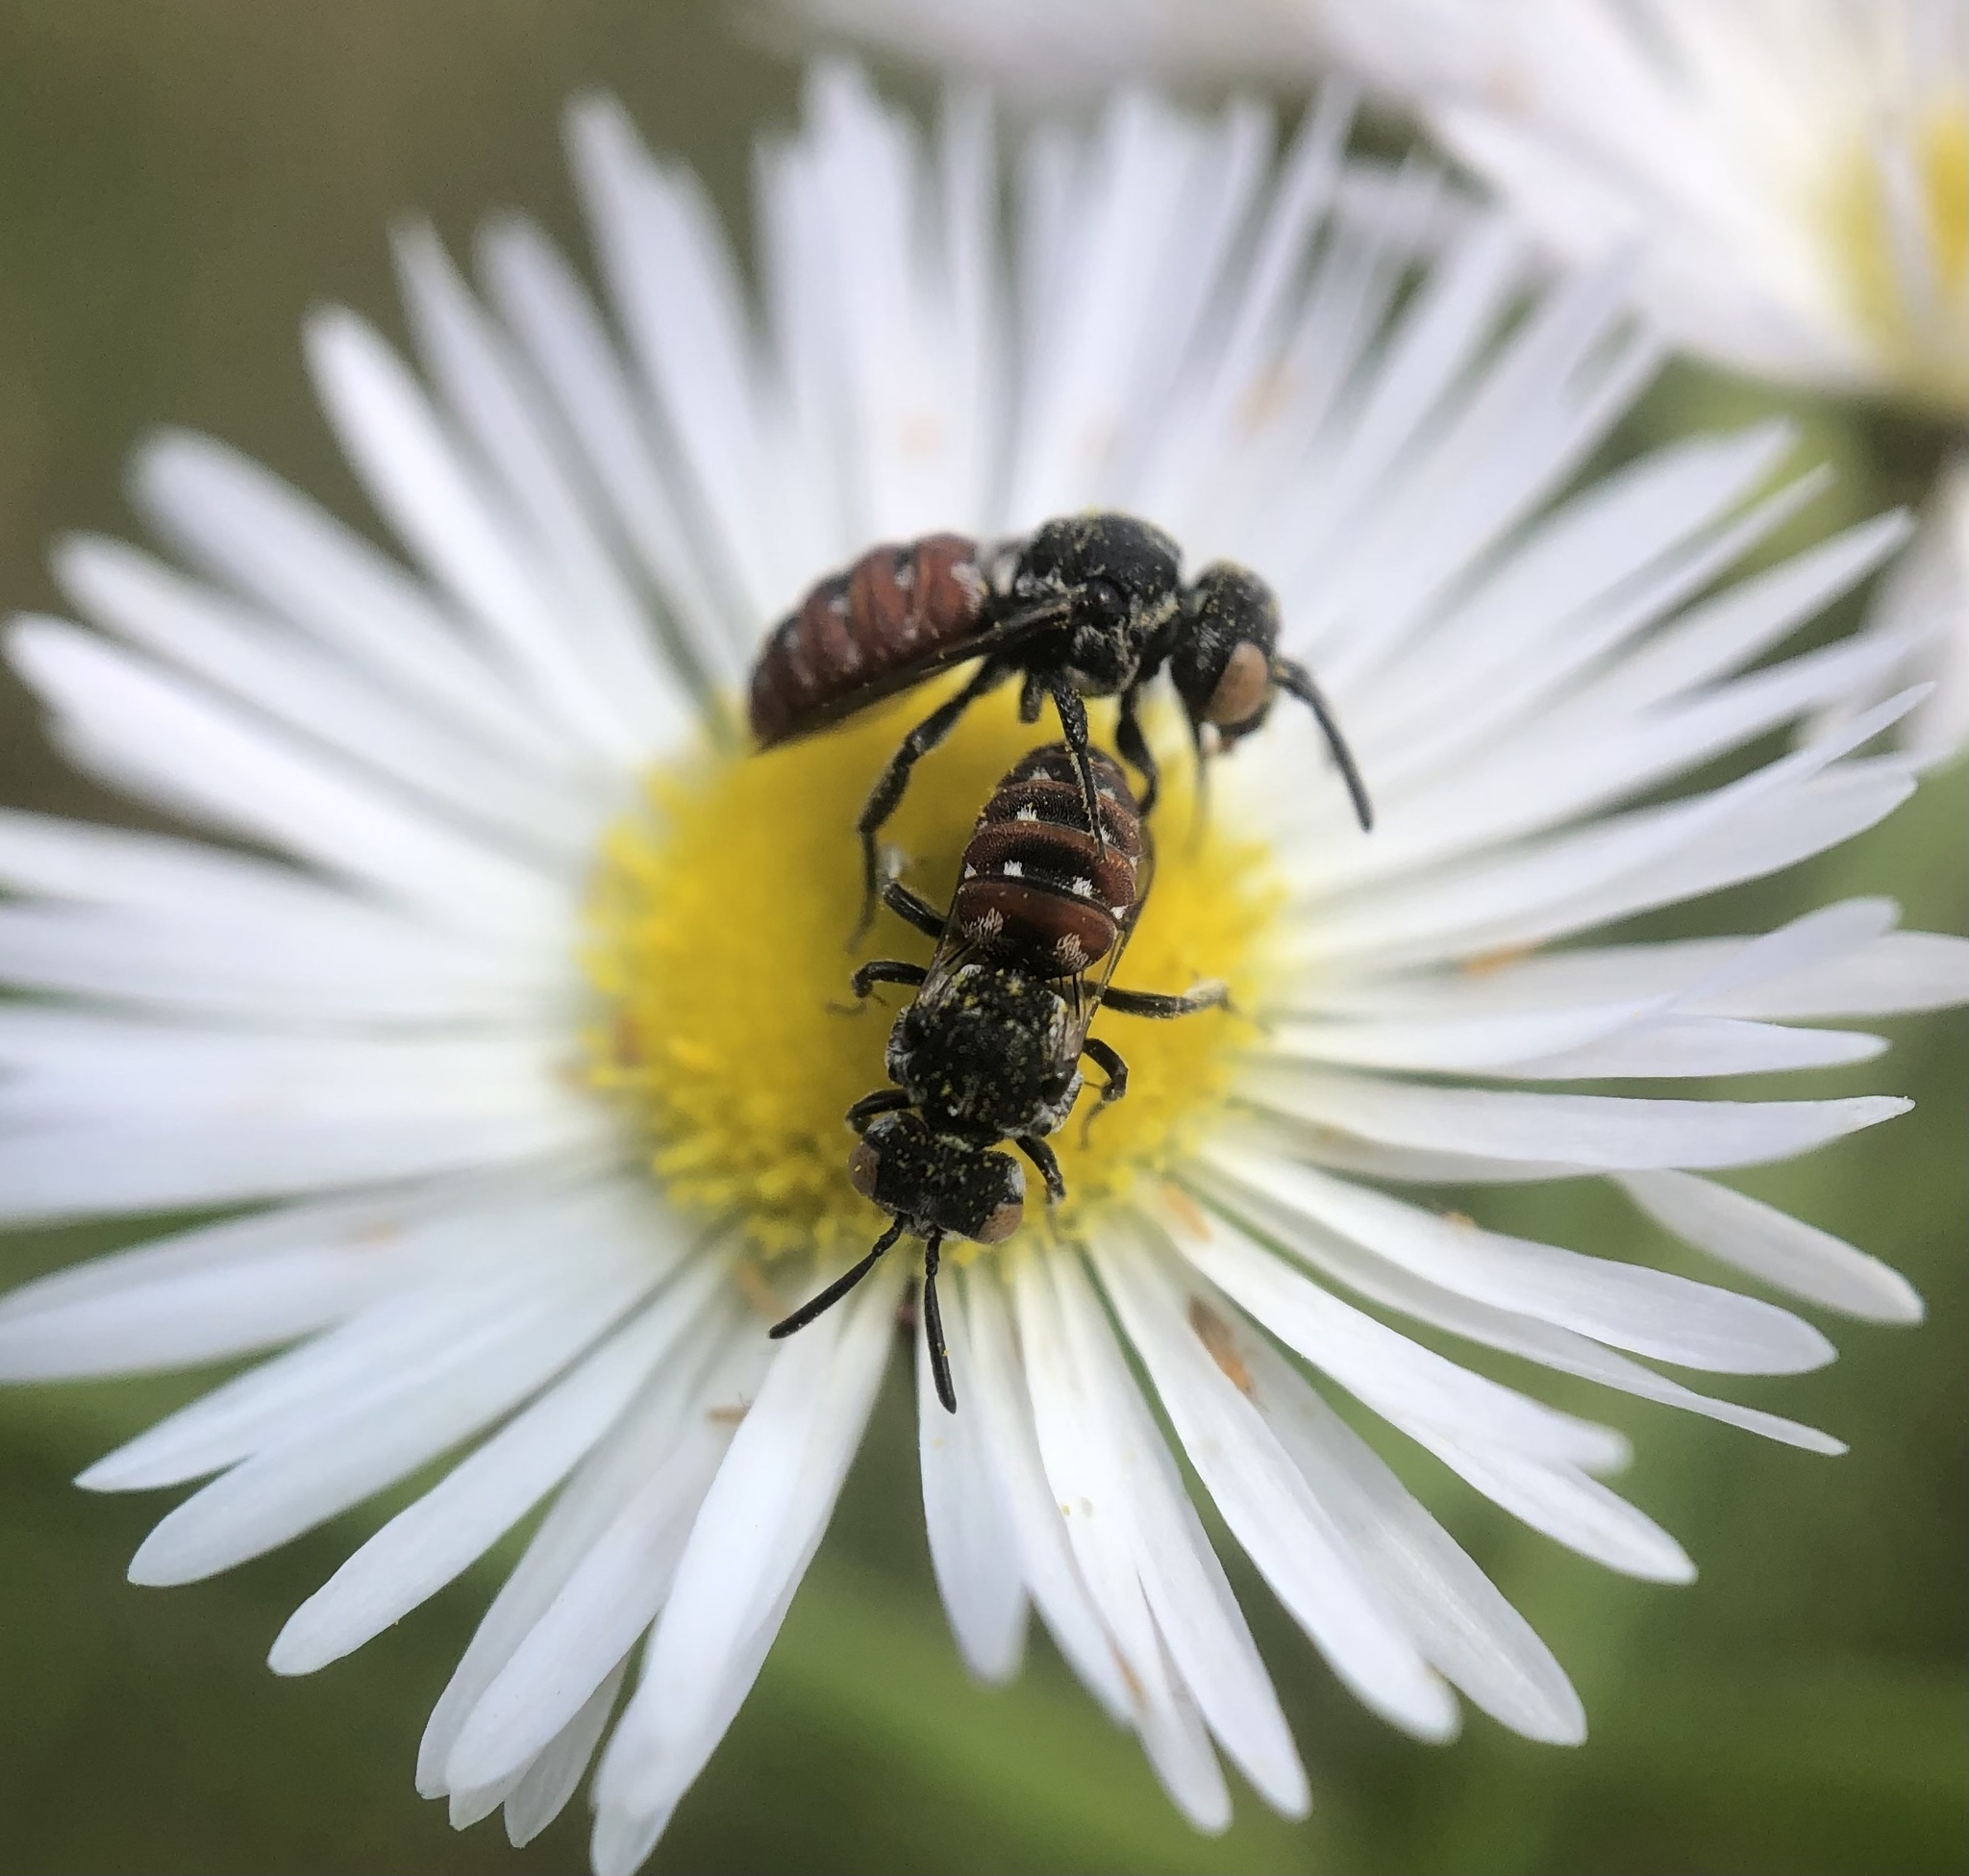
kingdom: Animalia
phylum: Arthropoda
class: Insecta
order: Hymenoptera
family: Apidae
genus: Holcopasites
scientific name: Holcopasites calliopsidis
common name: Calliopsis cuckoo nomad bee
